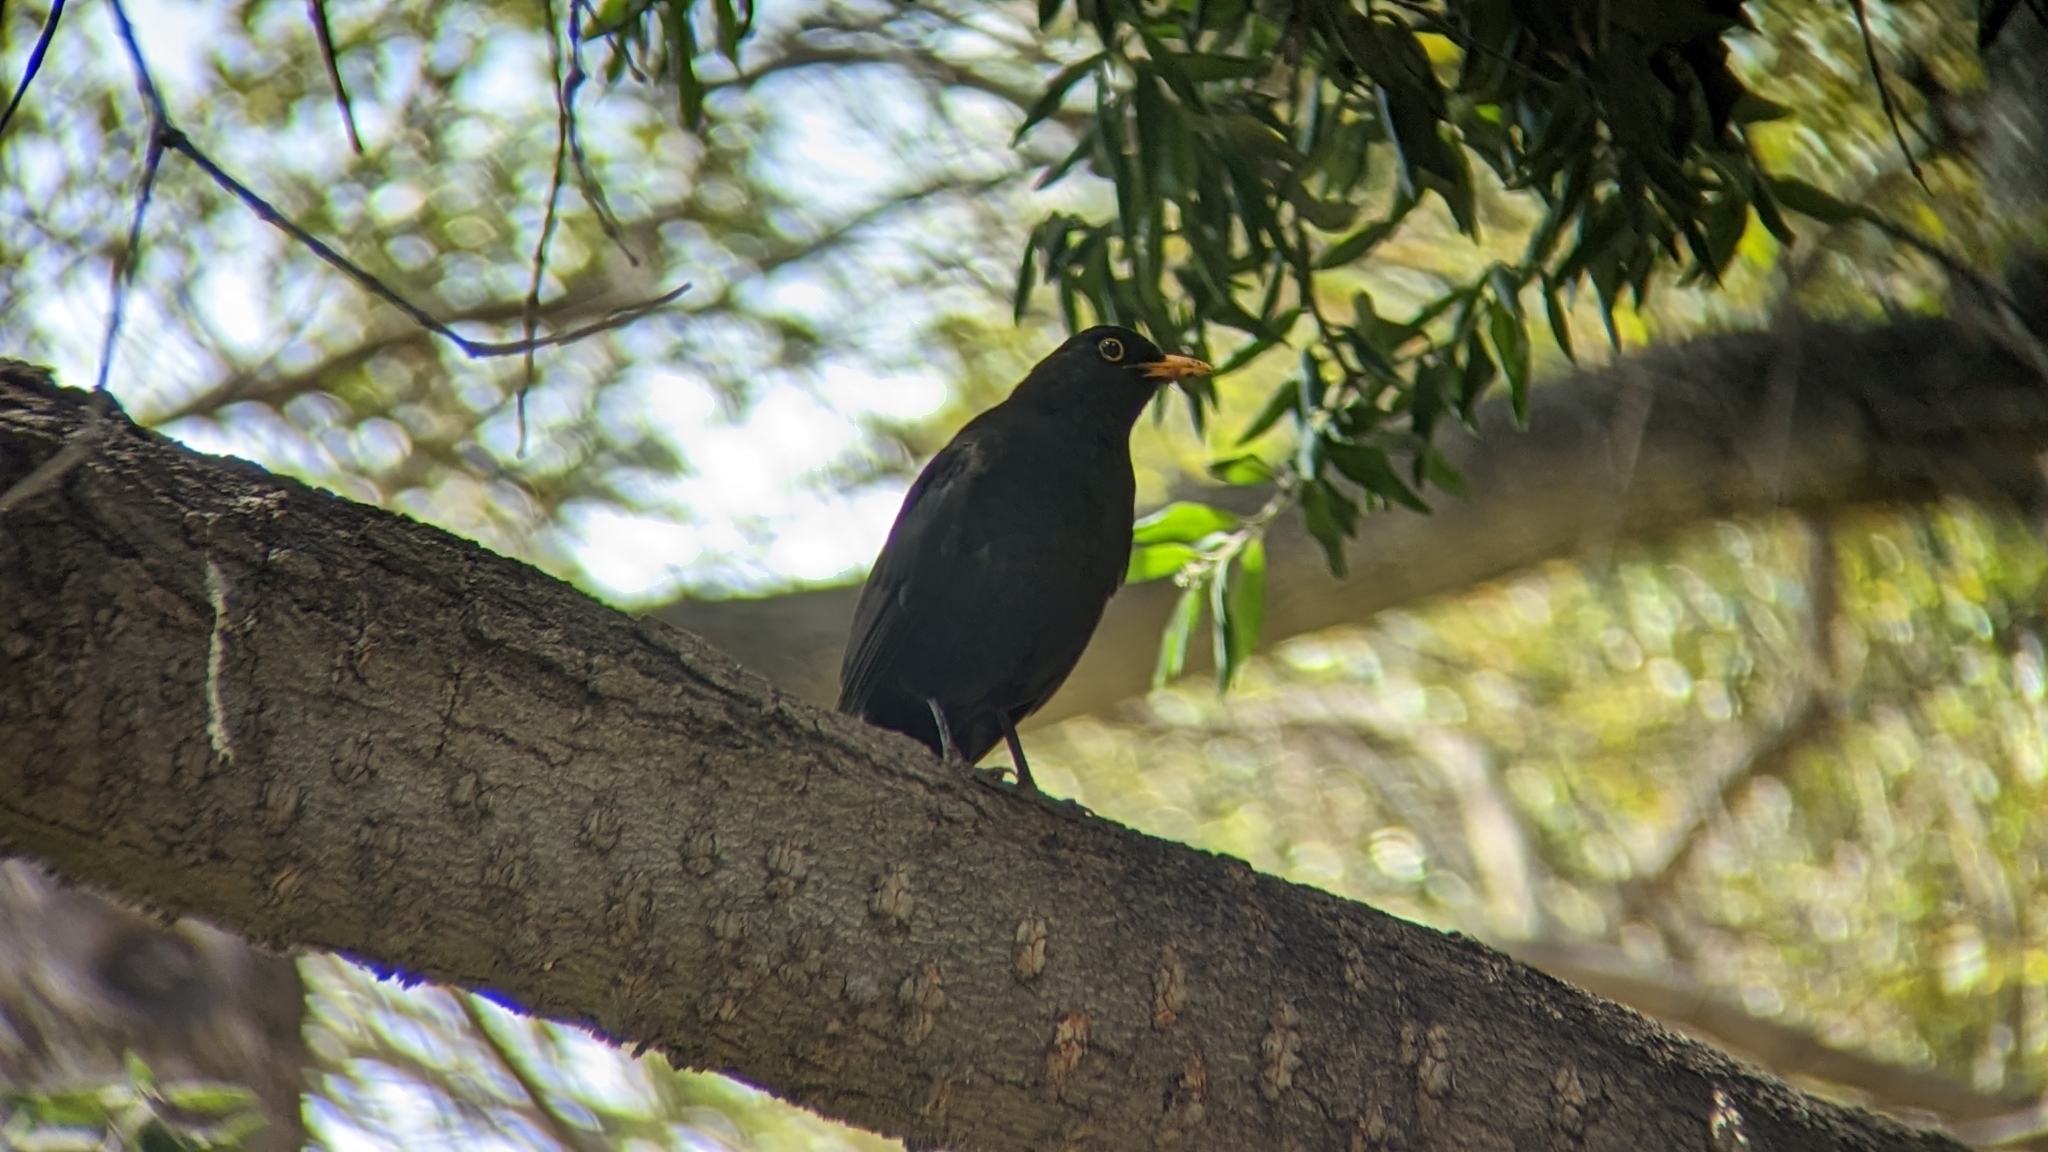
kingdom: Animalia
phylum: Chordata
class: Aves
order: Passeriformes
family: Turdidae
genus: Turdus
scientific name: Turdus merula
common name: Common blackbird
